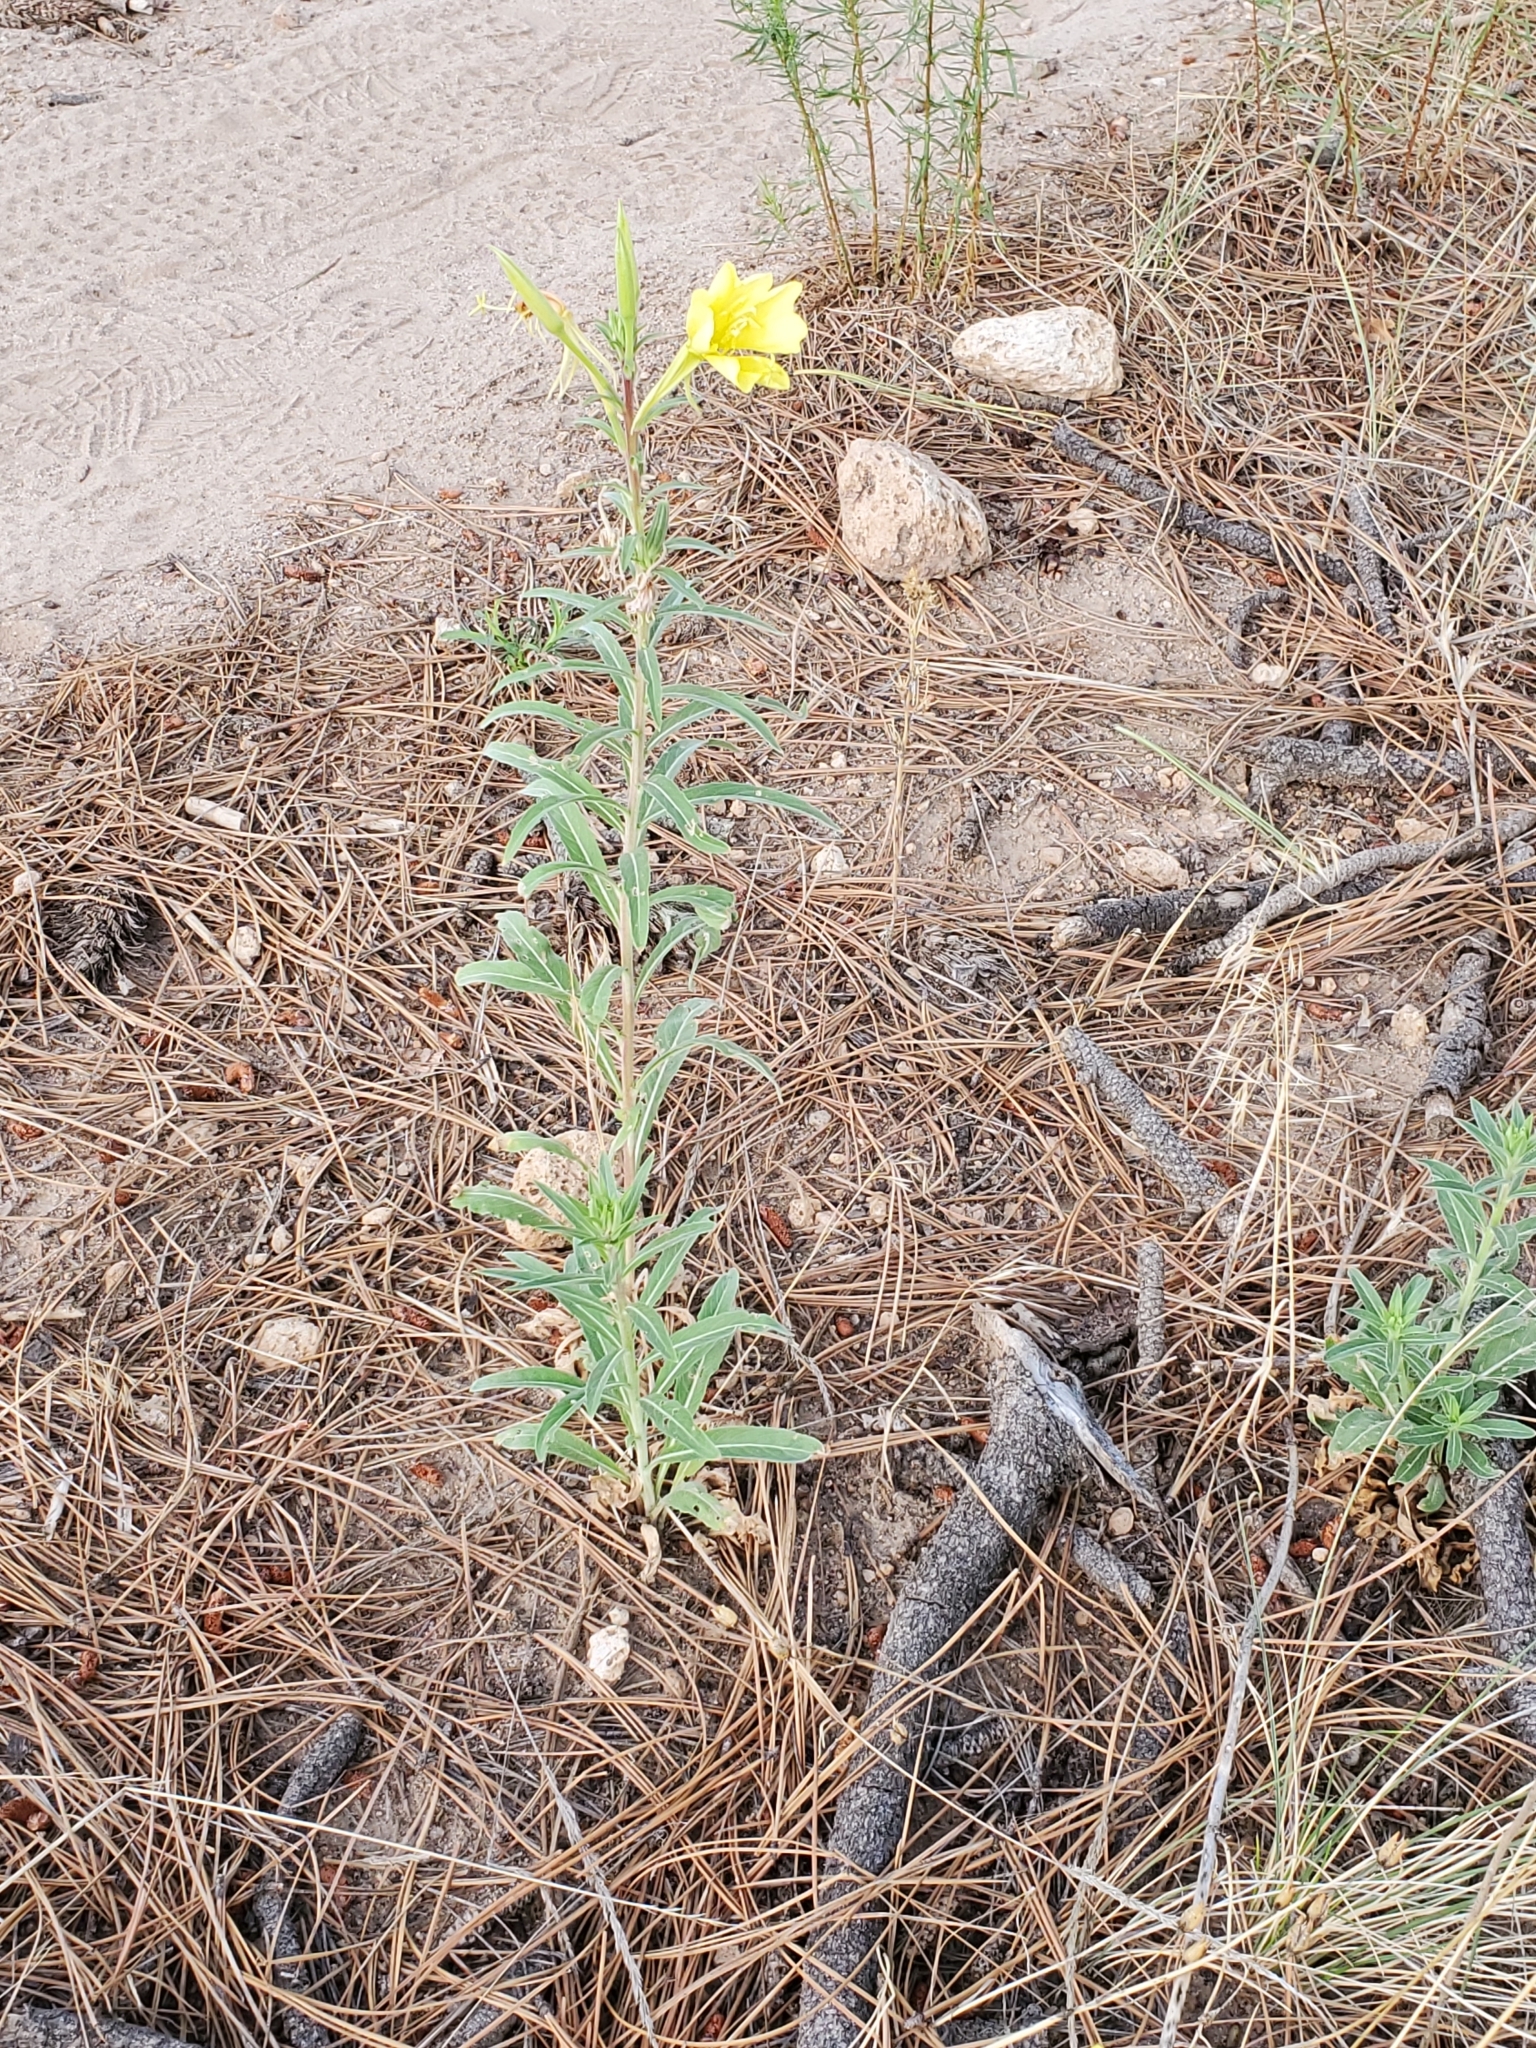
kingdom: Plantae
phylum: Tracheophyta
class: Magnoliopsida
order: Myrtales
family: Onagraceae
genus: Oenothera
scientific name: Oenothera elata
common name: Hooker's evening-primrose
